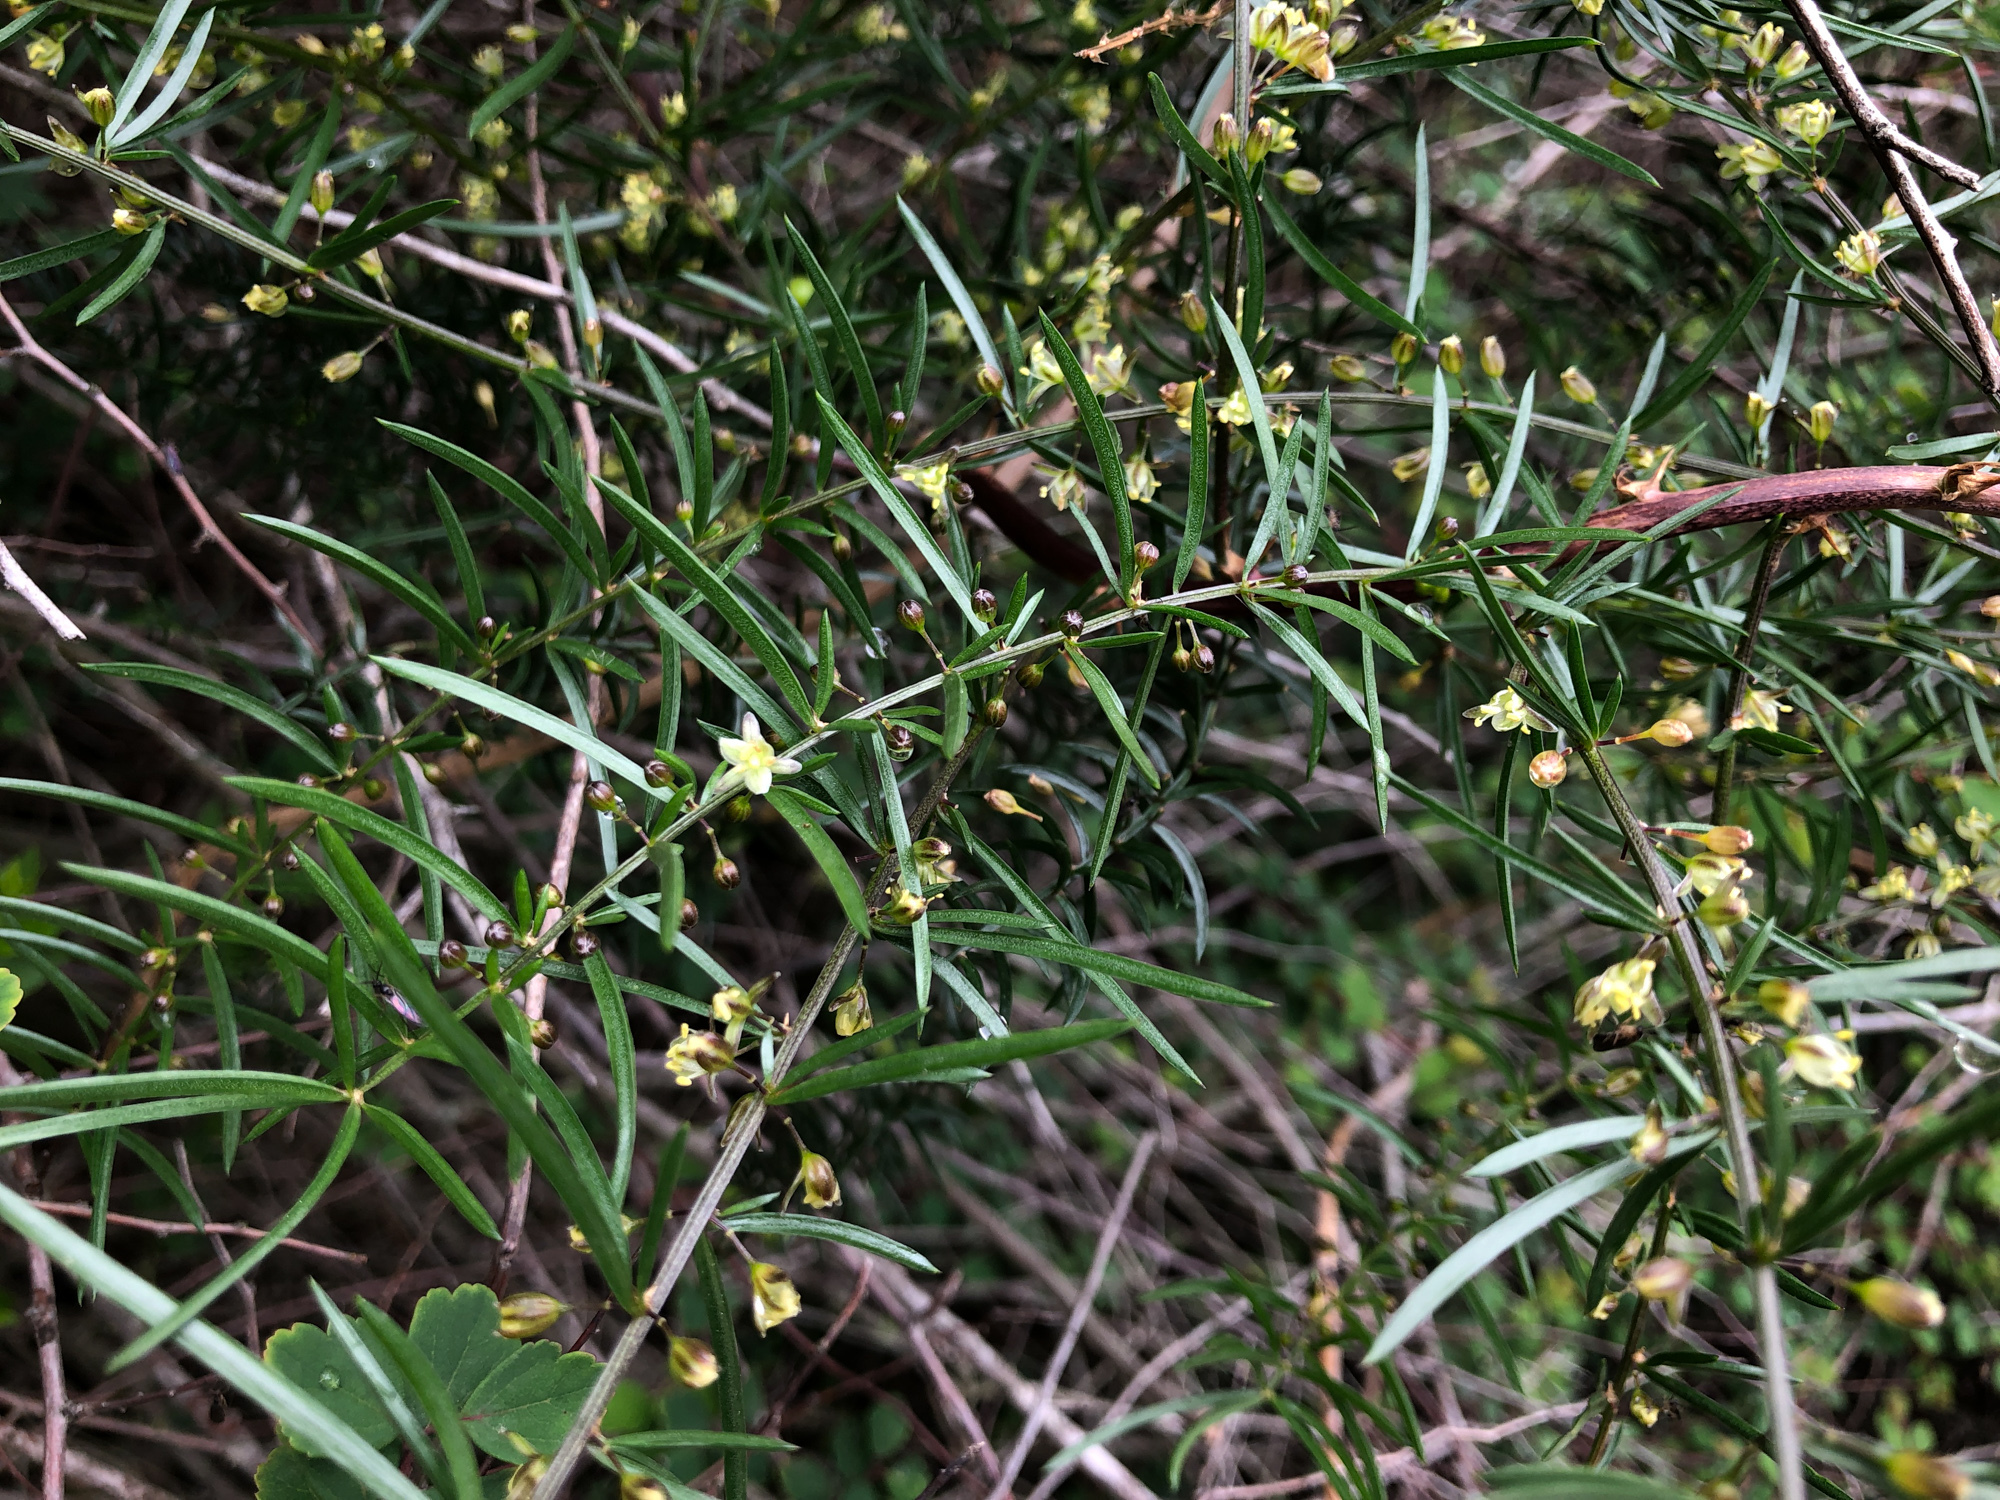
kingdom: Plantae
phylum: Tracheophyta
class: Liliopsida
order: Asparagales
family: Asparagaceae
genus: Asparagus
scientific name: Asparagus cochinchinensis
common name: Chinese asparagus
